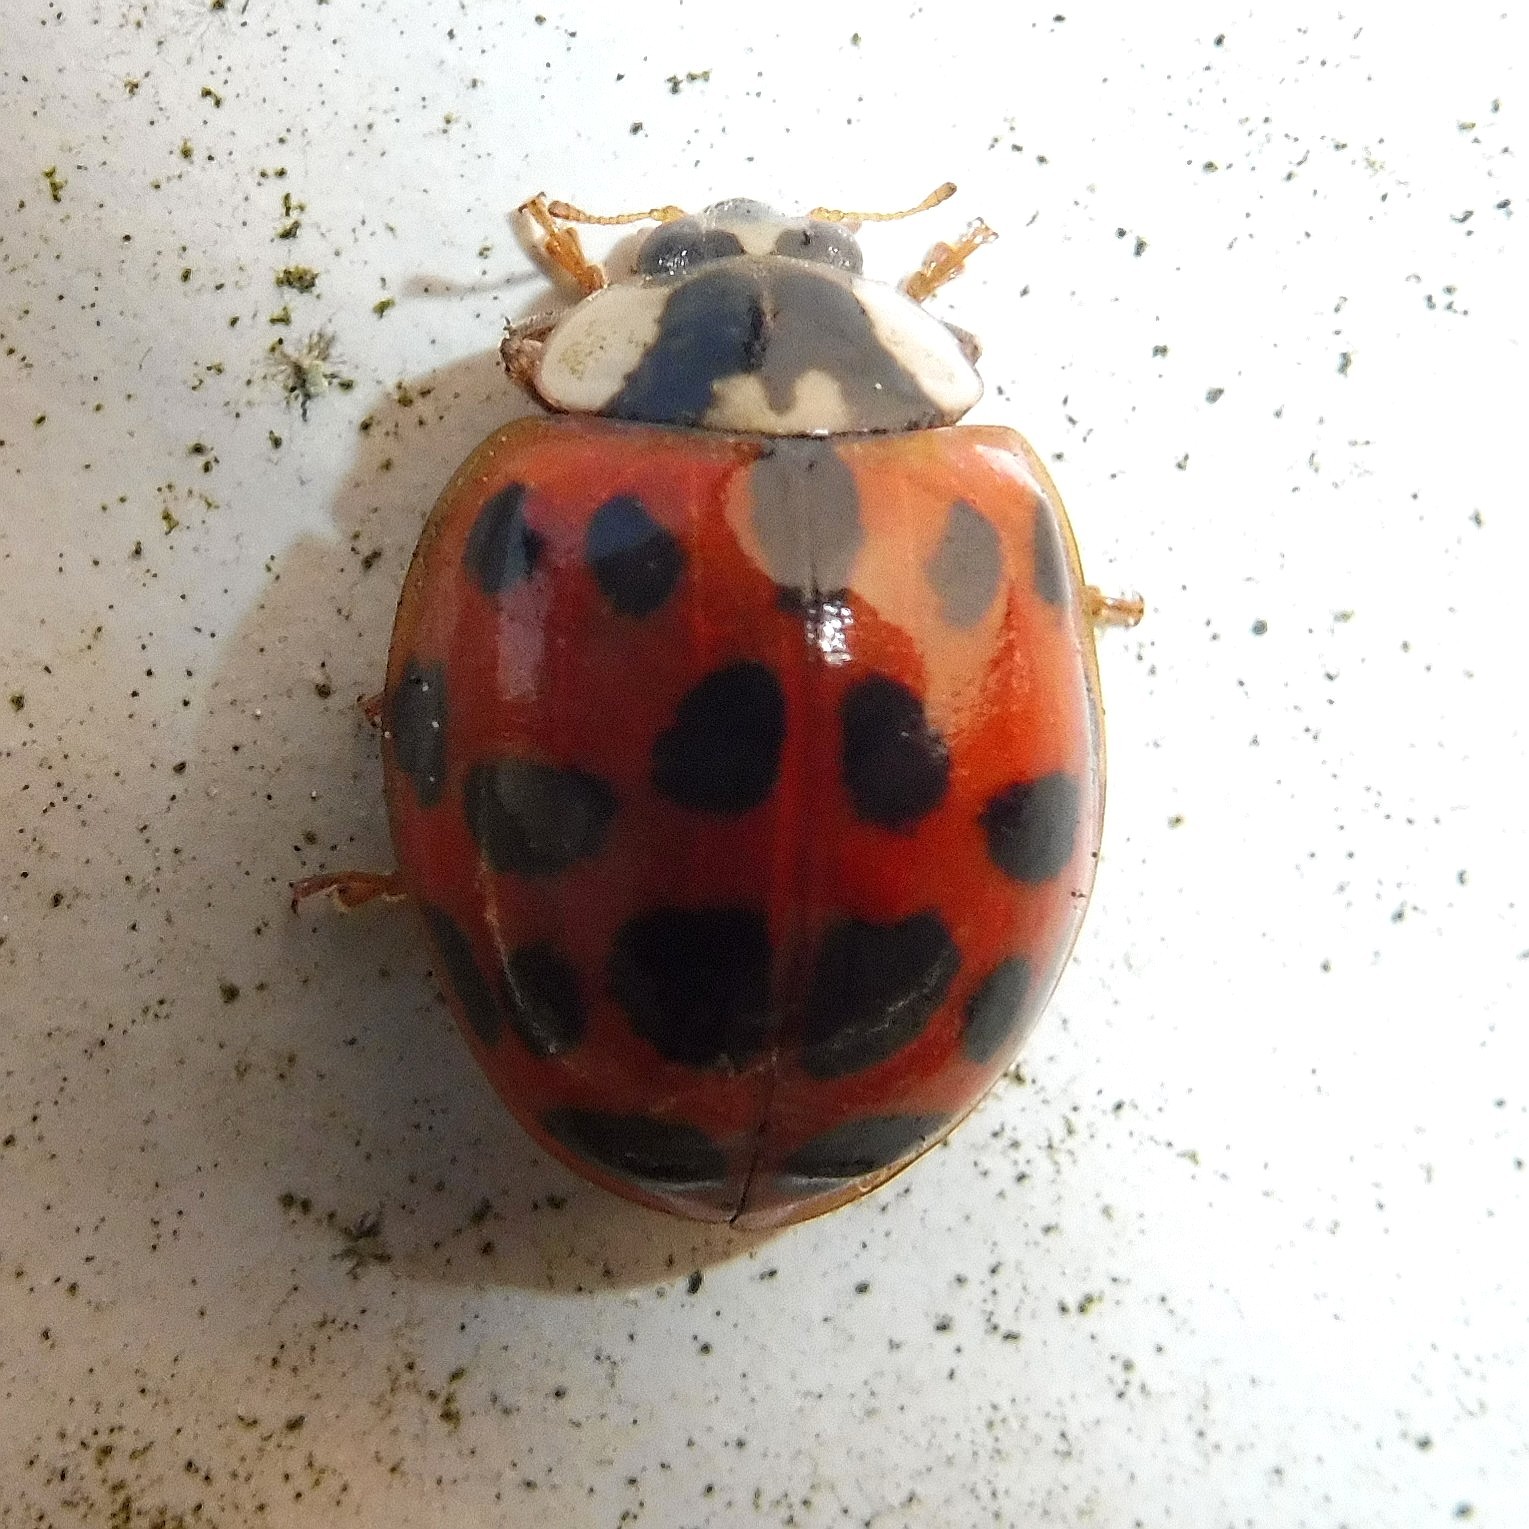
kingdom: Animalia
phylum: Arthropoda
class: Insecta
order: Coleoptera
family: Coccinellidae
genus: Harmonia
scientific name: Harmonia axyridis
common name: Harlequin ladybird
